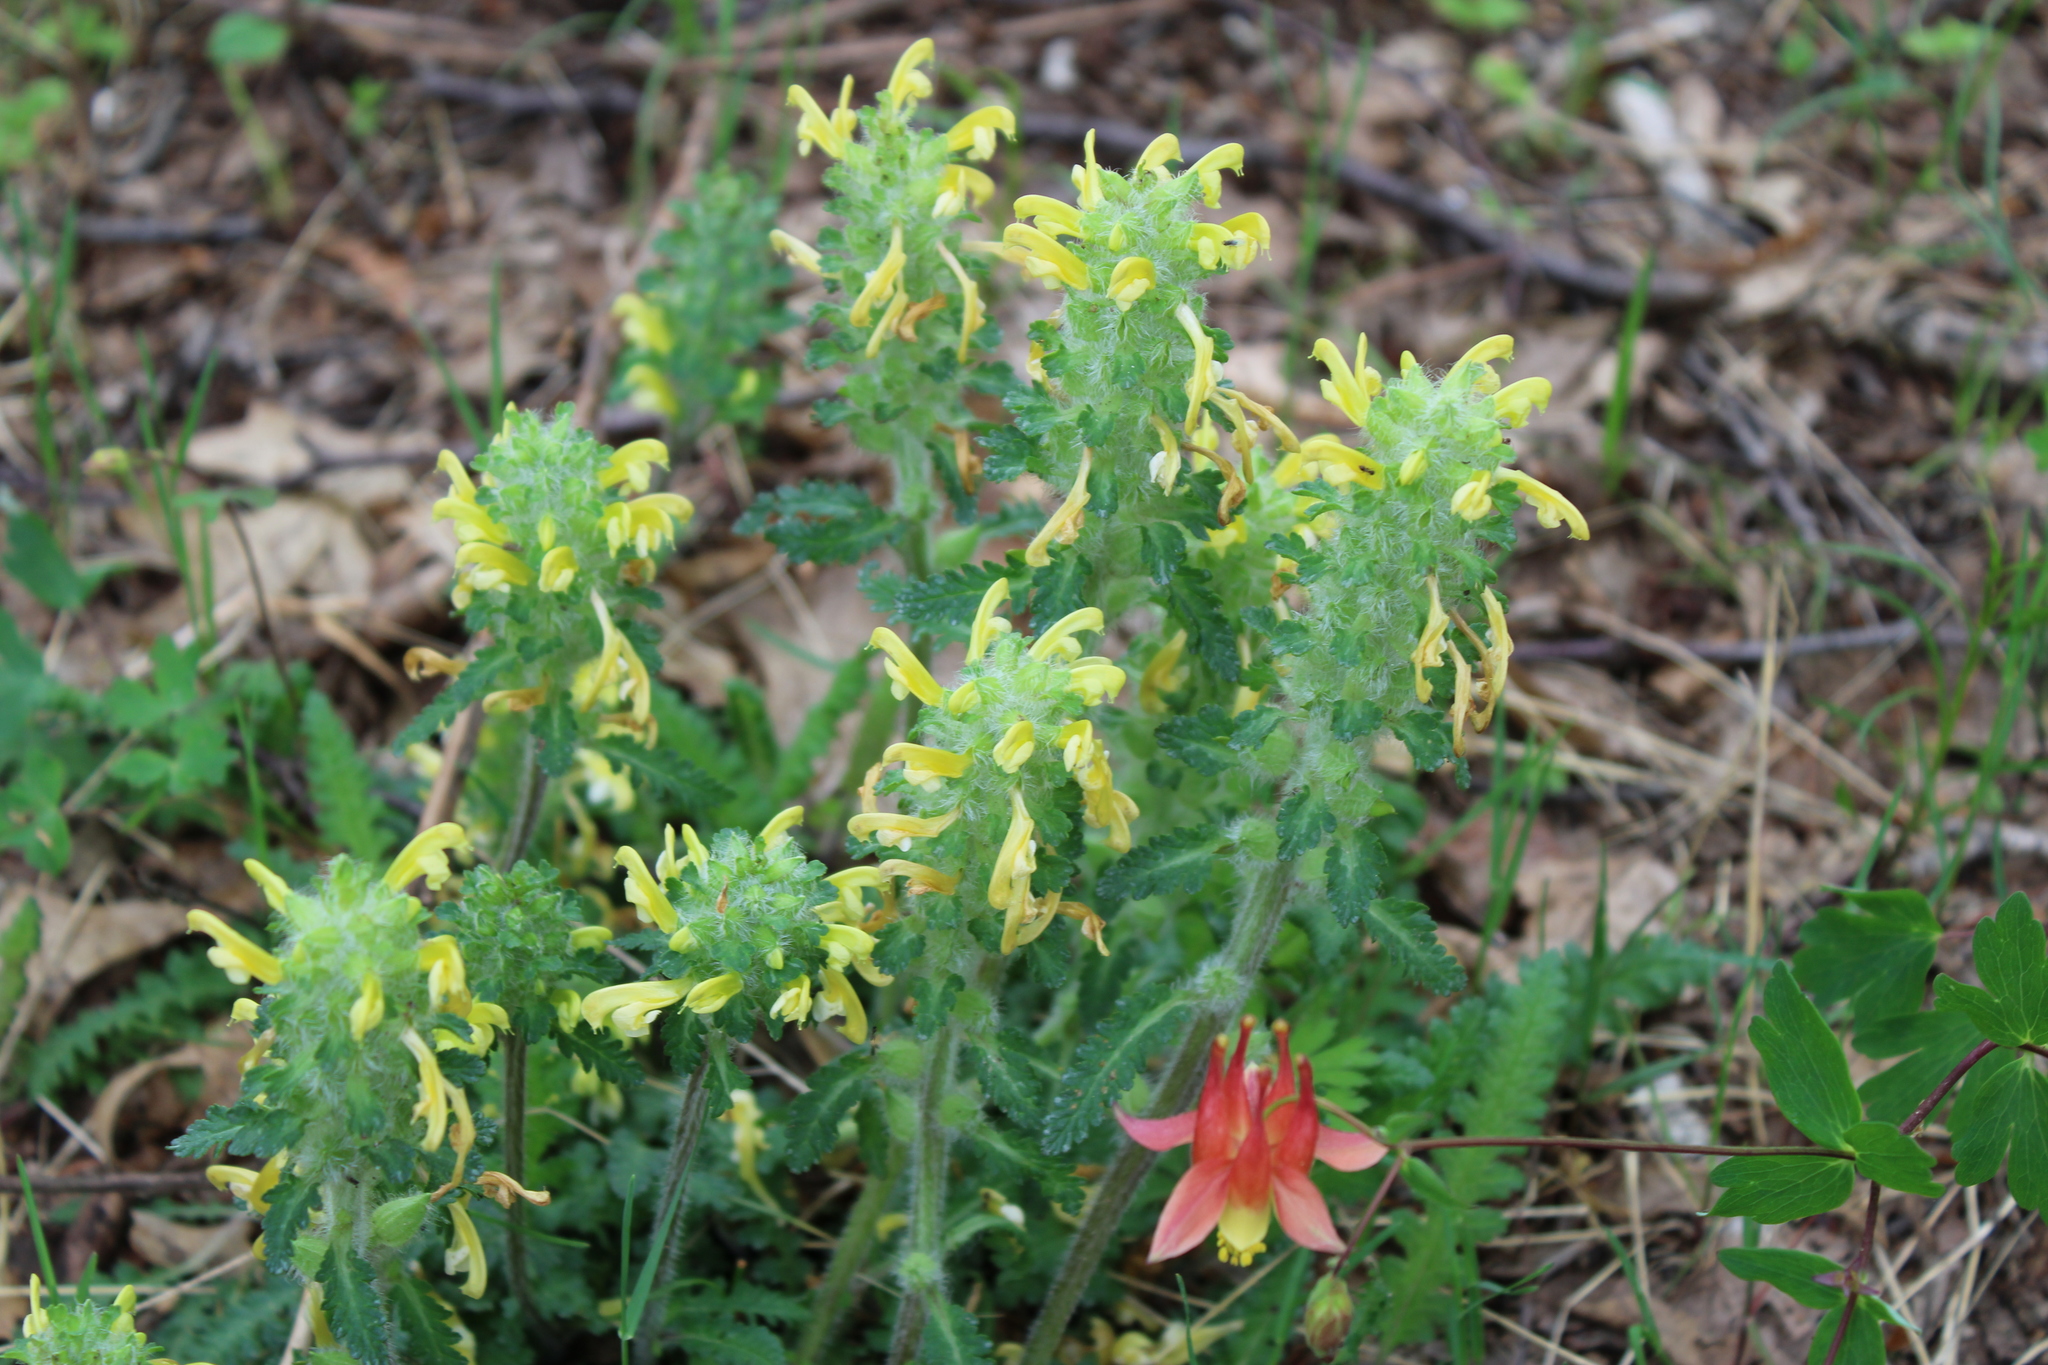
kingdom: Plantae
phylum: Tracheophyta
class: Magnoliopsida
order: Lamiales
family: Orobanchaceae
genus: Pedicularis
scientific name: Pedicularis canadensis
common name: Early lousewort
